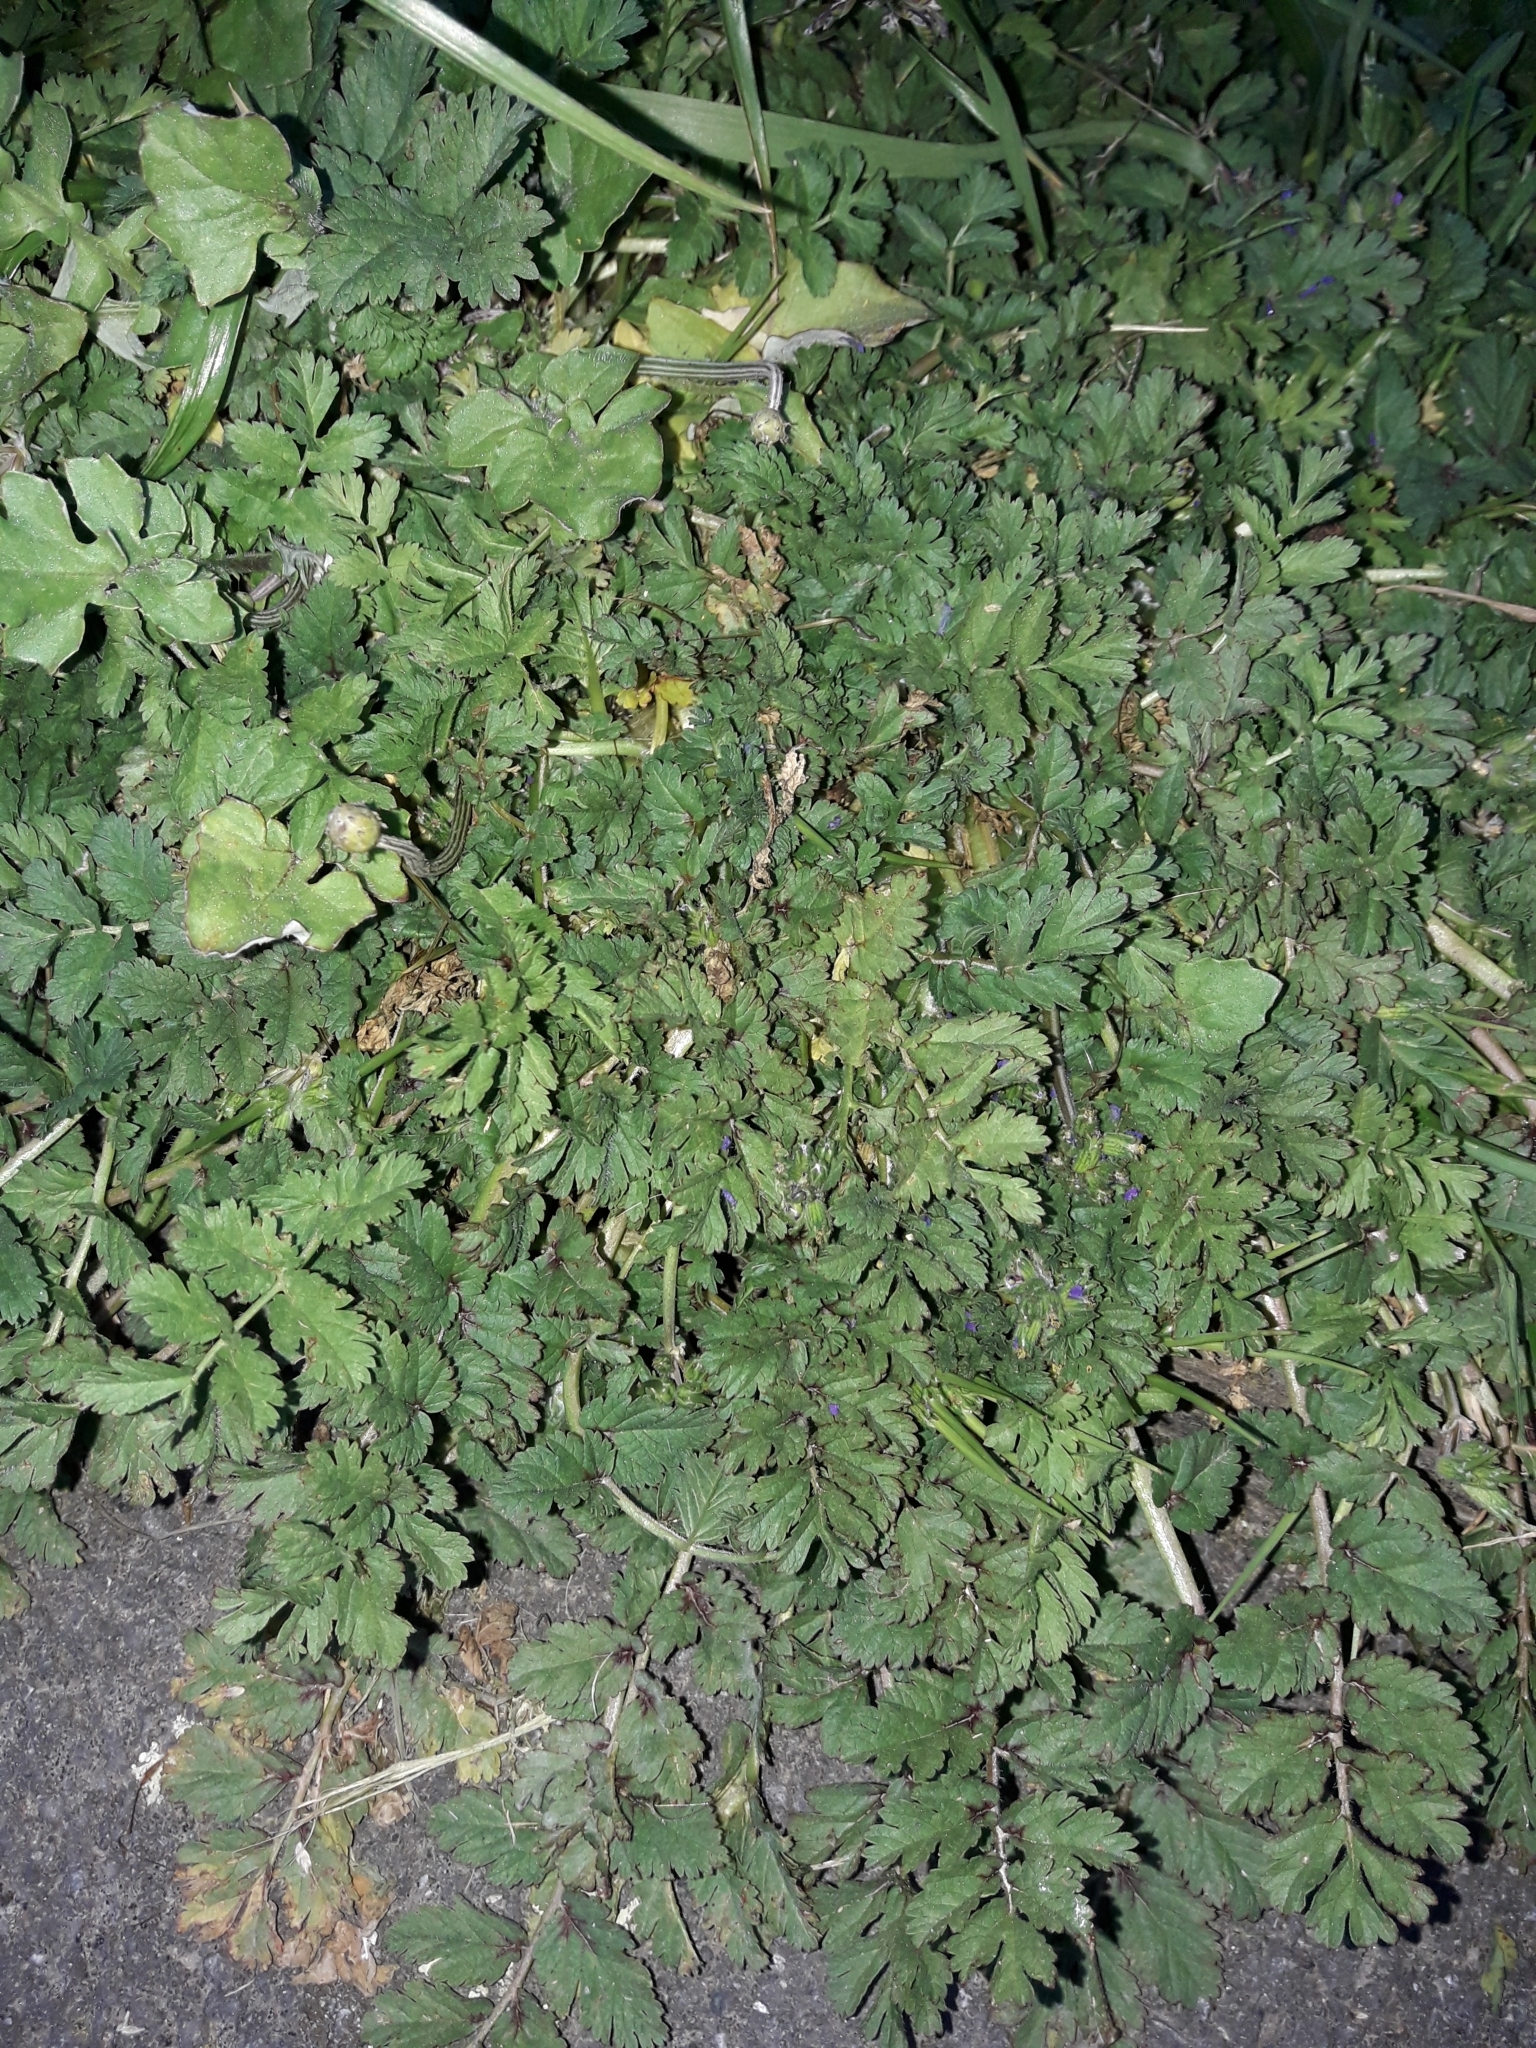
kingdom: Plantae
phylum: Tracheophyta
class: Magnoliopsida
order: Geraniales
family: Geraniaceae
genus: Erodium
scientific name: Erodium moschatum
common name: Musk stork's-bill
